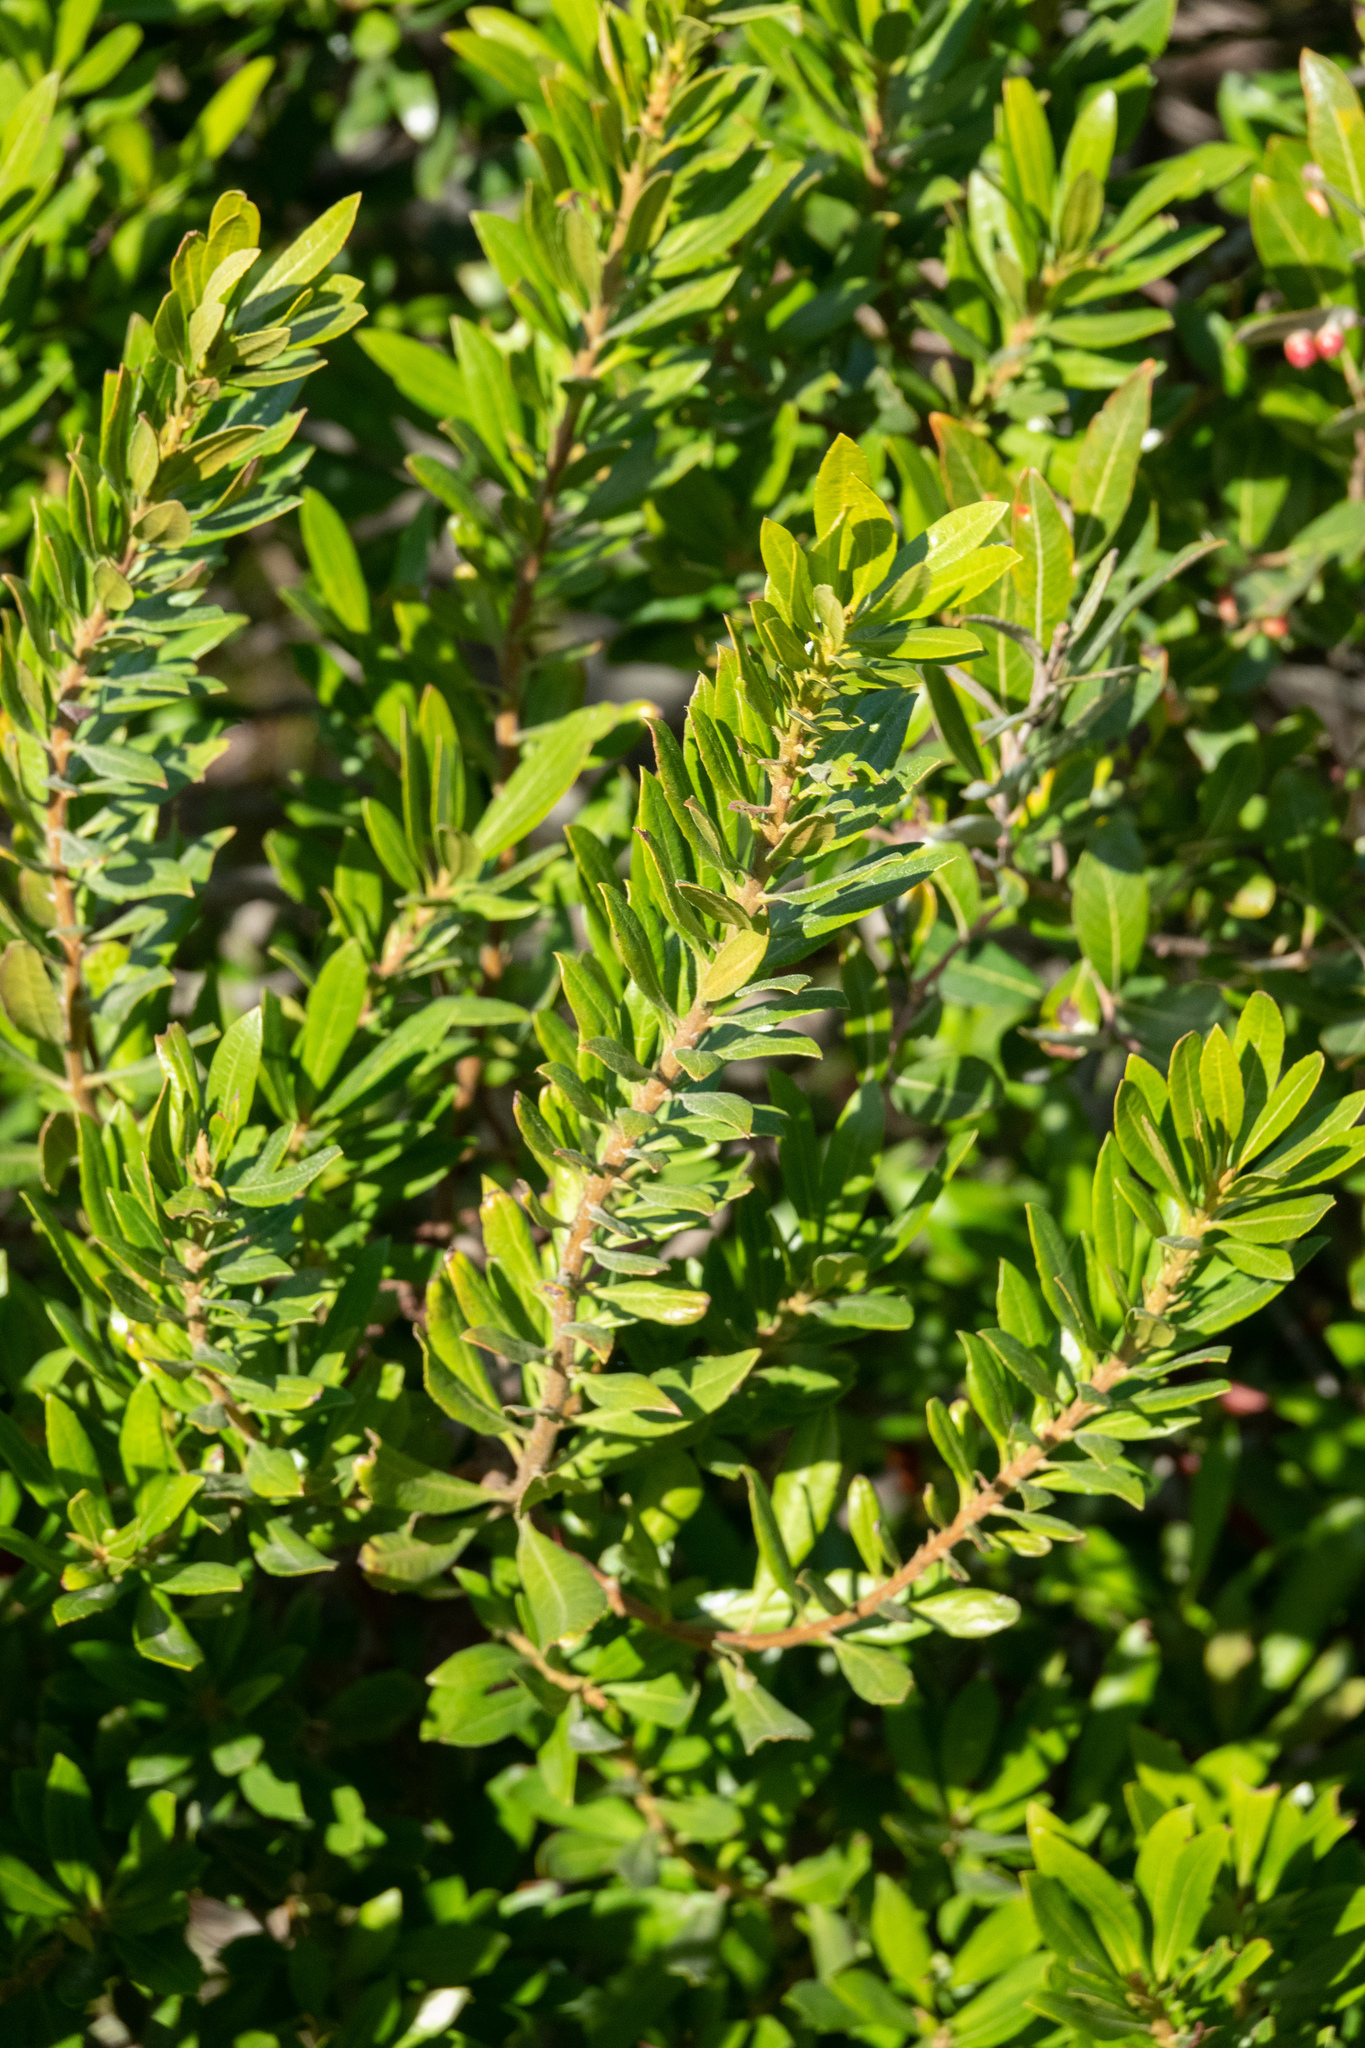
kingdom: Plantae
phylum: Tracheophyta
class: Magnoliopsida
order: Fagales
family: Myricaceae
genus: Morella
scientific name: Morella californica
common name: California wax-myrtle
